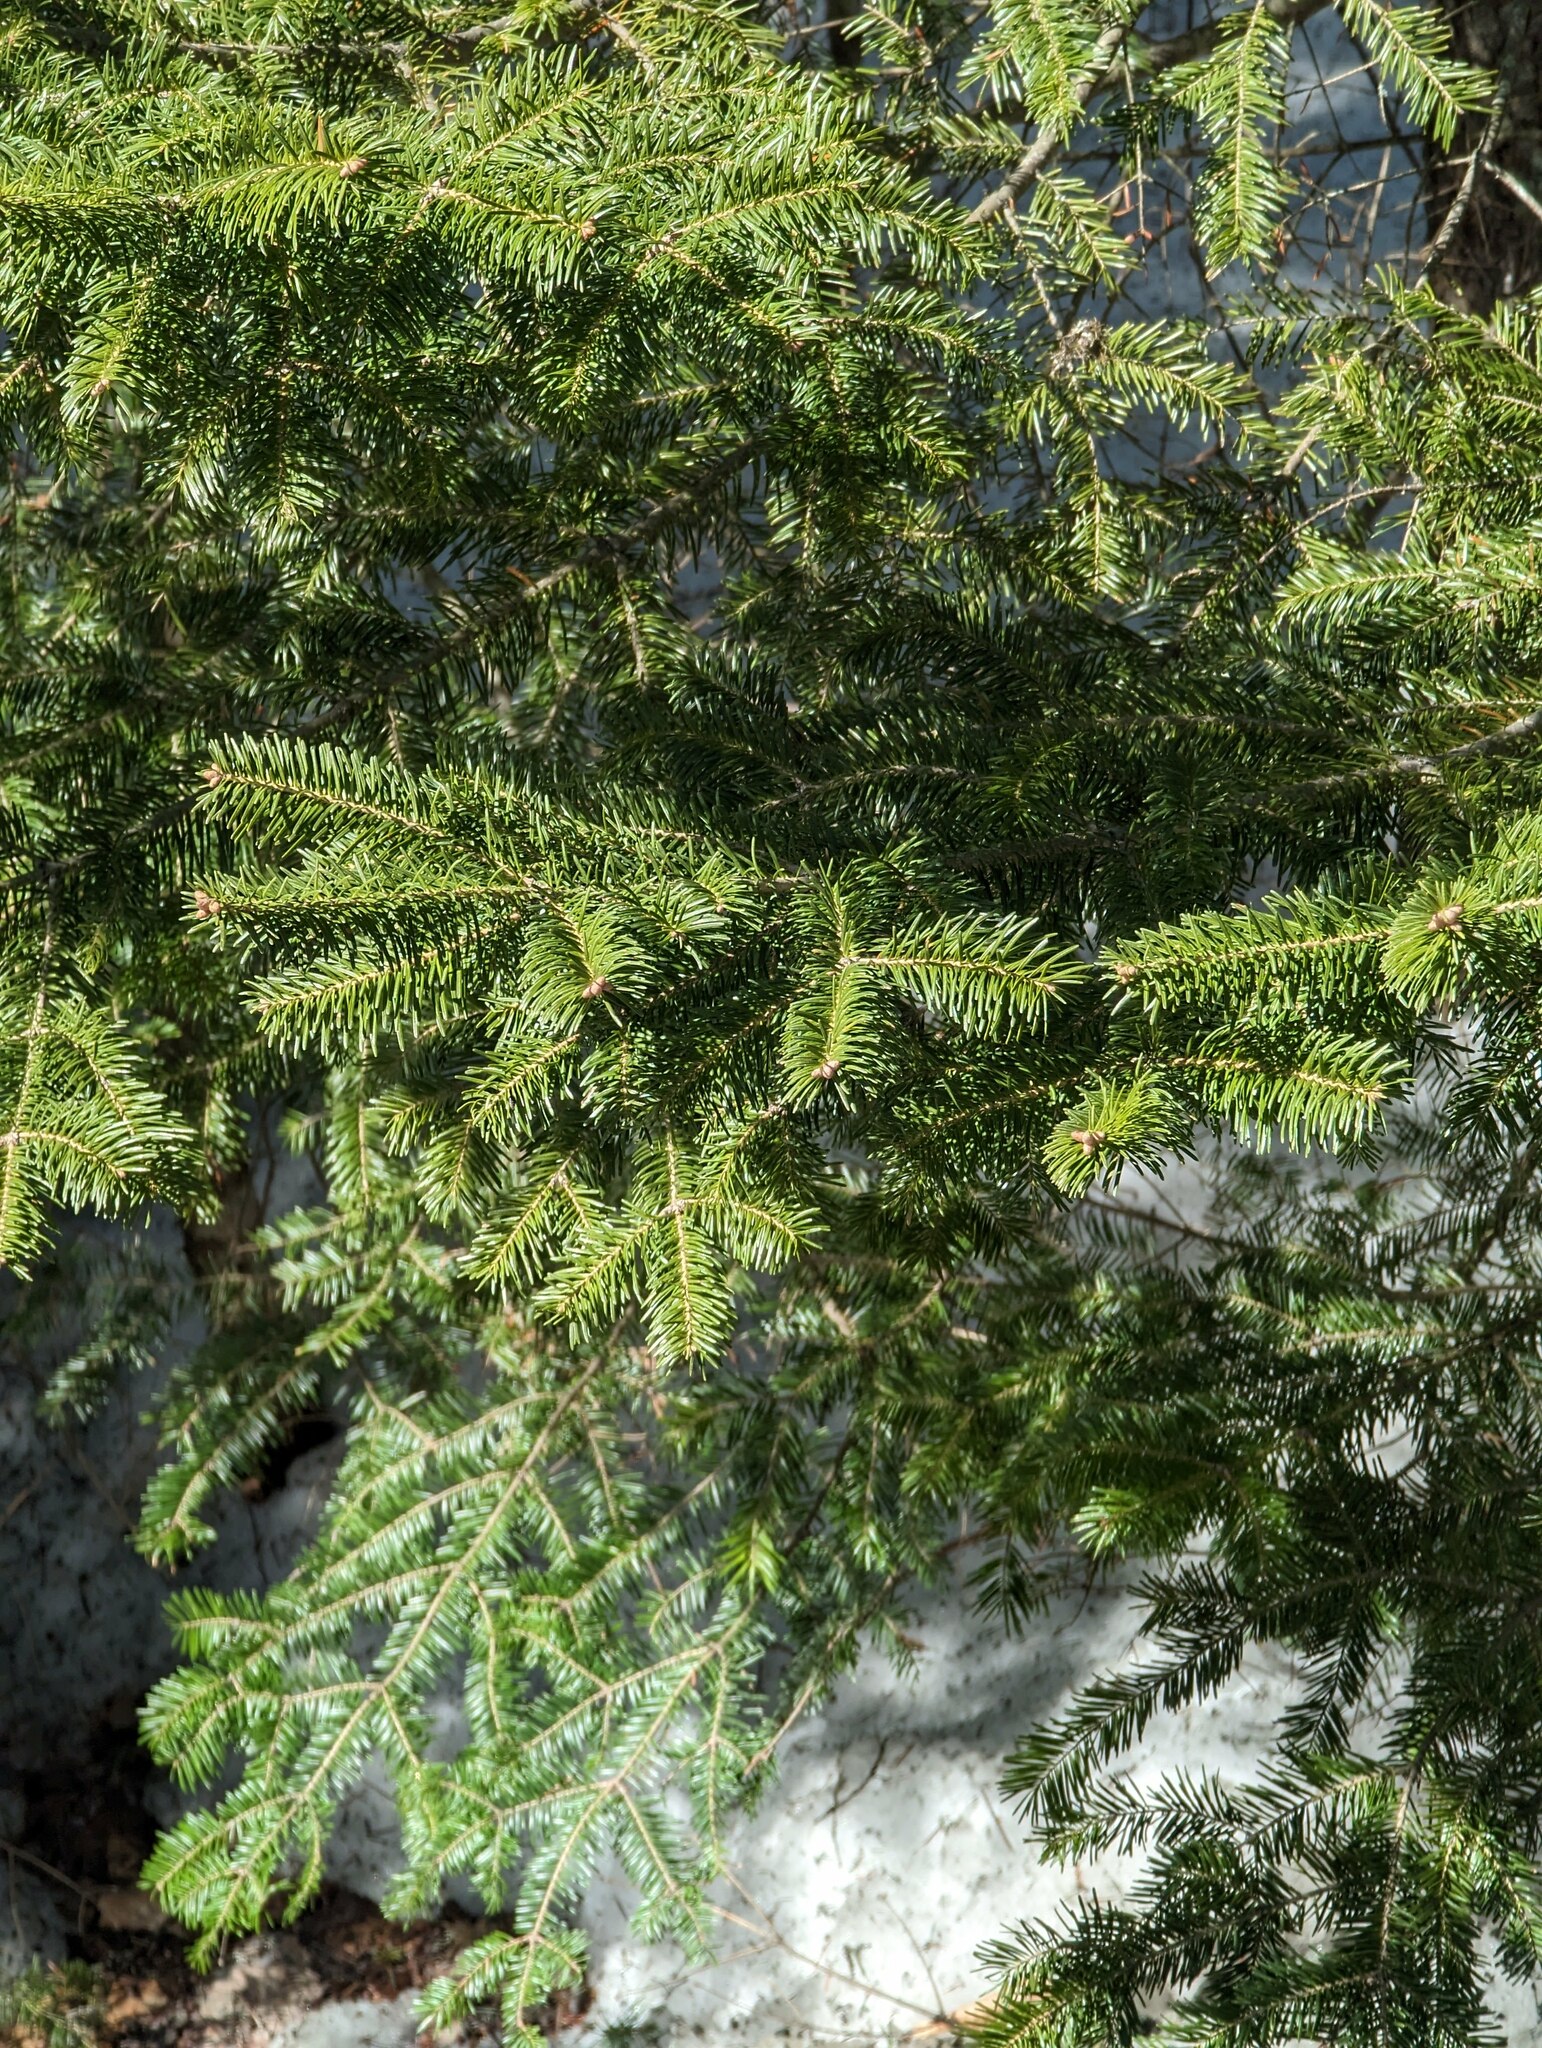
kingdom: Plantae
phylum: Tracheophyta
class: Pinopsida
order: Pinales
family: Pinaceae
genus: Abies
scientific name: Abies balsamea
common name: Balsam fir
